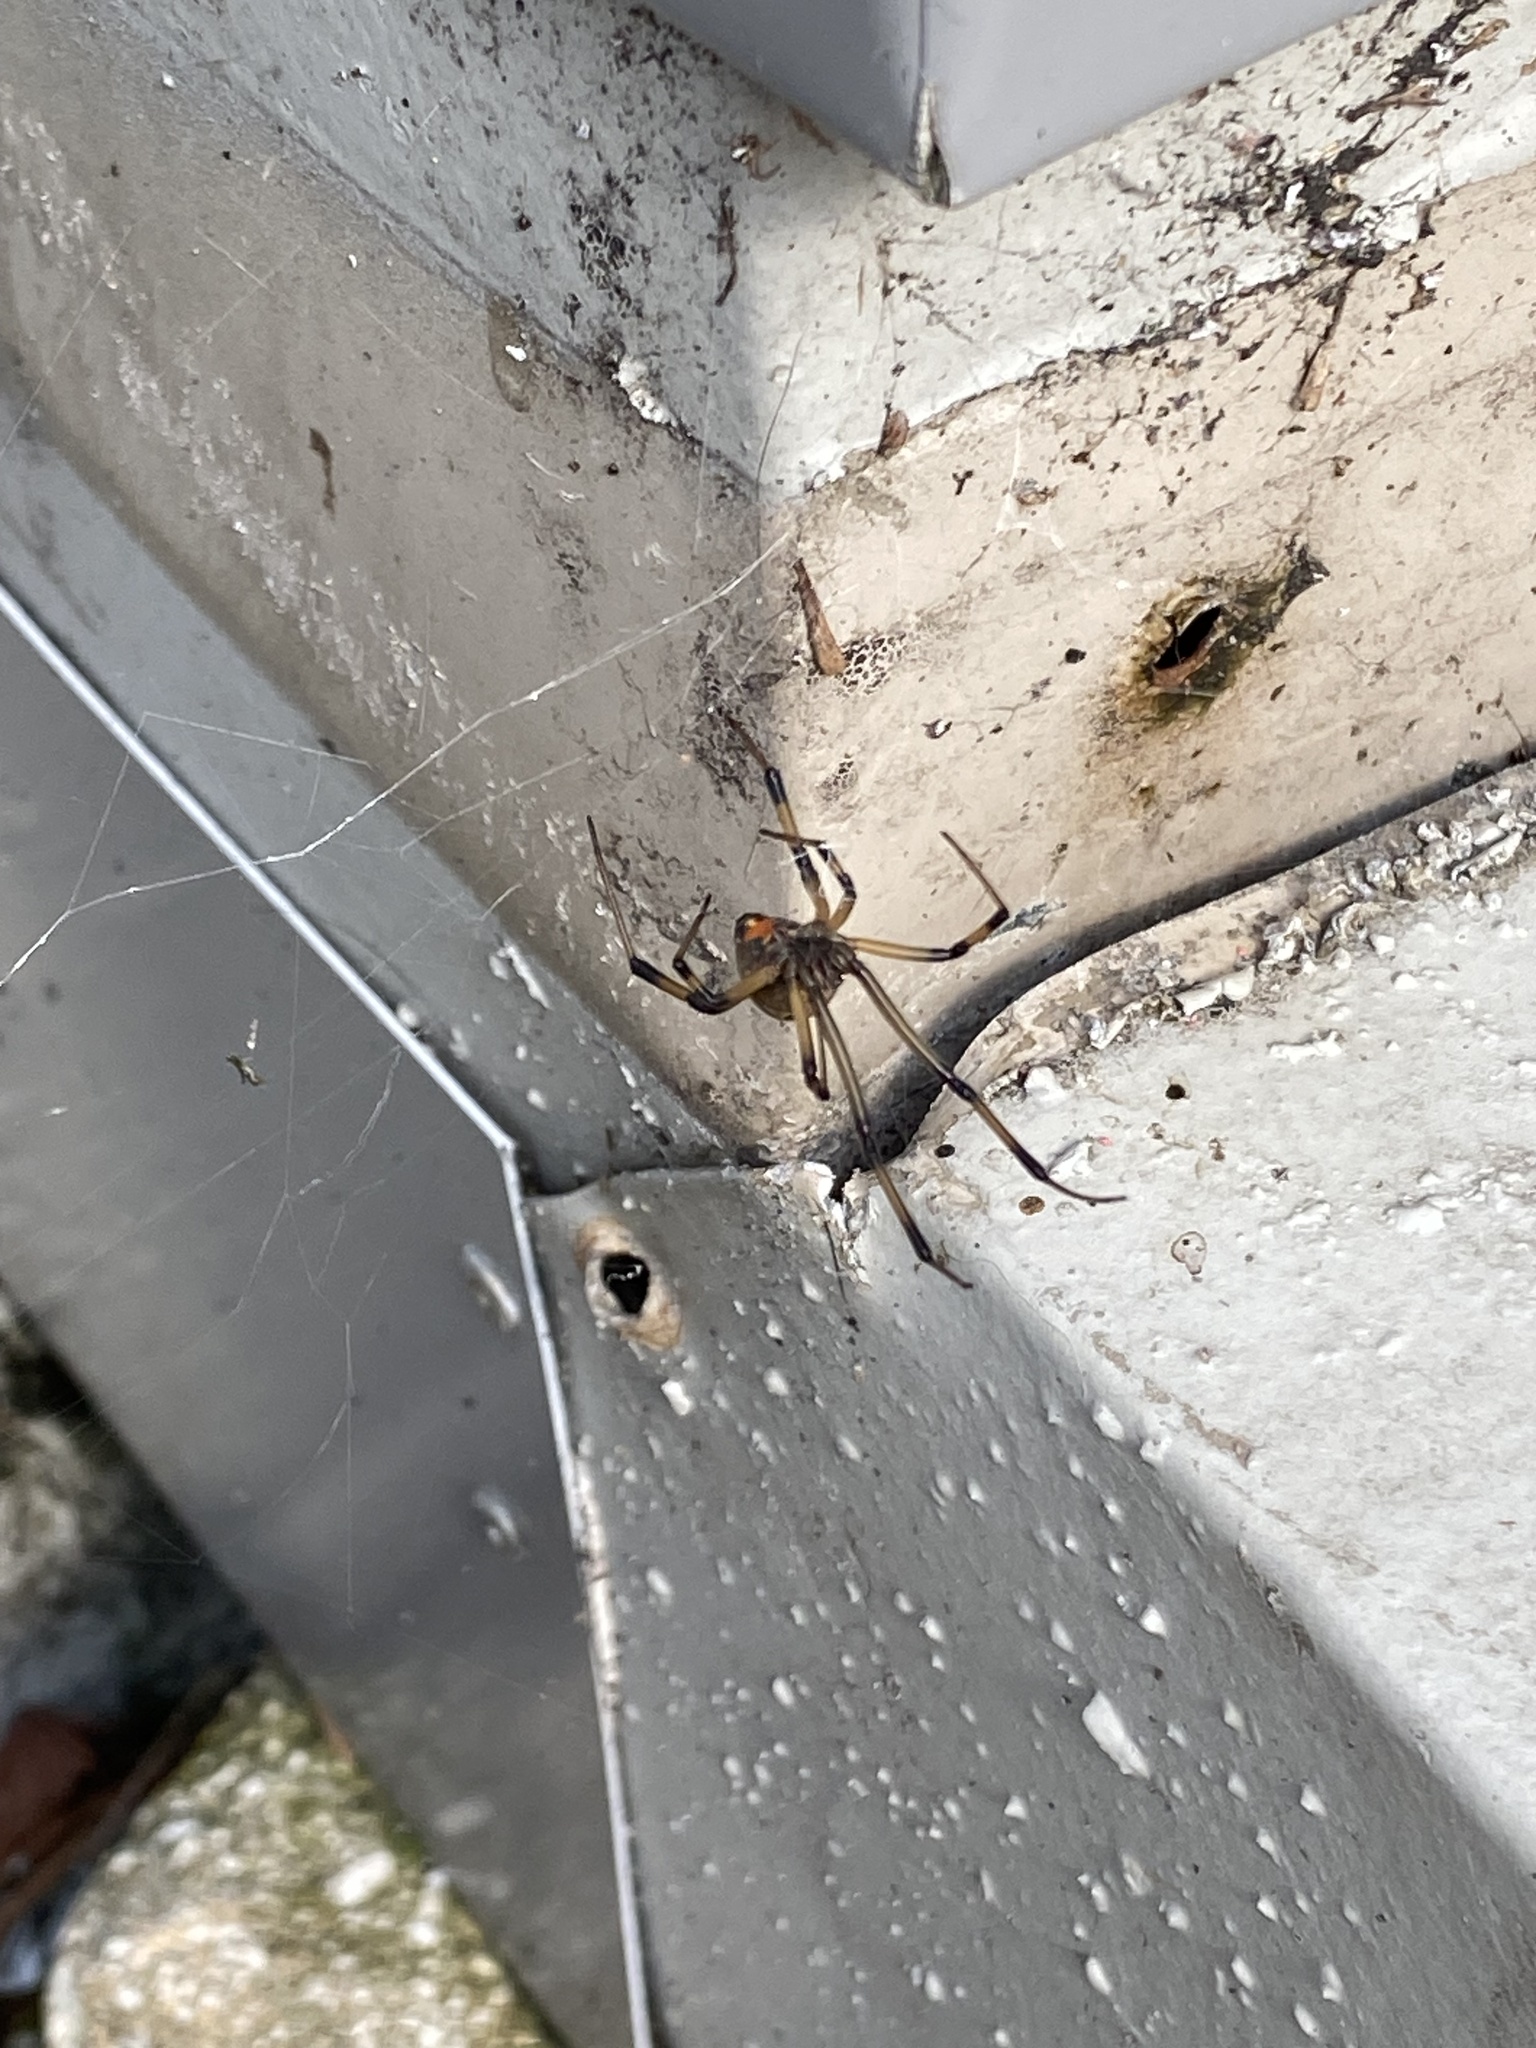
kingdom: Animalia
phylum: Arthropoda
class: Arachnida
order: Araneae
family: Theridiidae
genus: Latrodectus
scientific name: Latrodectus geometricus
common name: Brown widow spider
